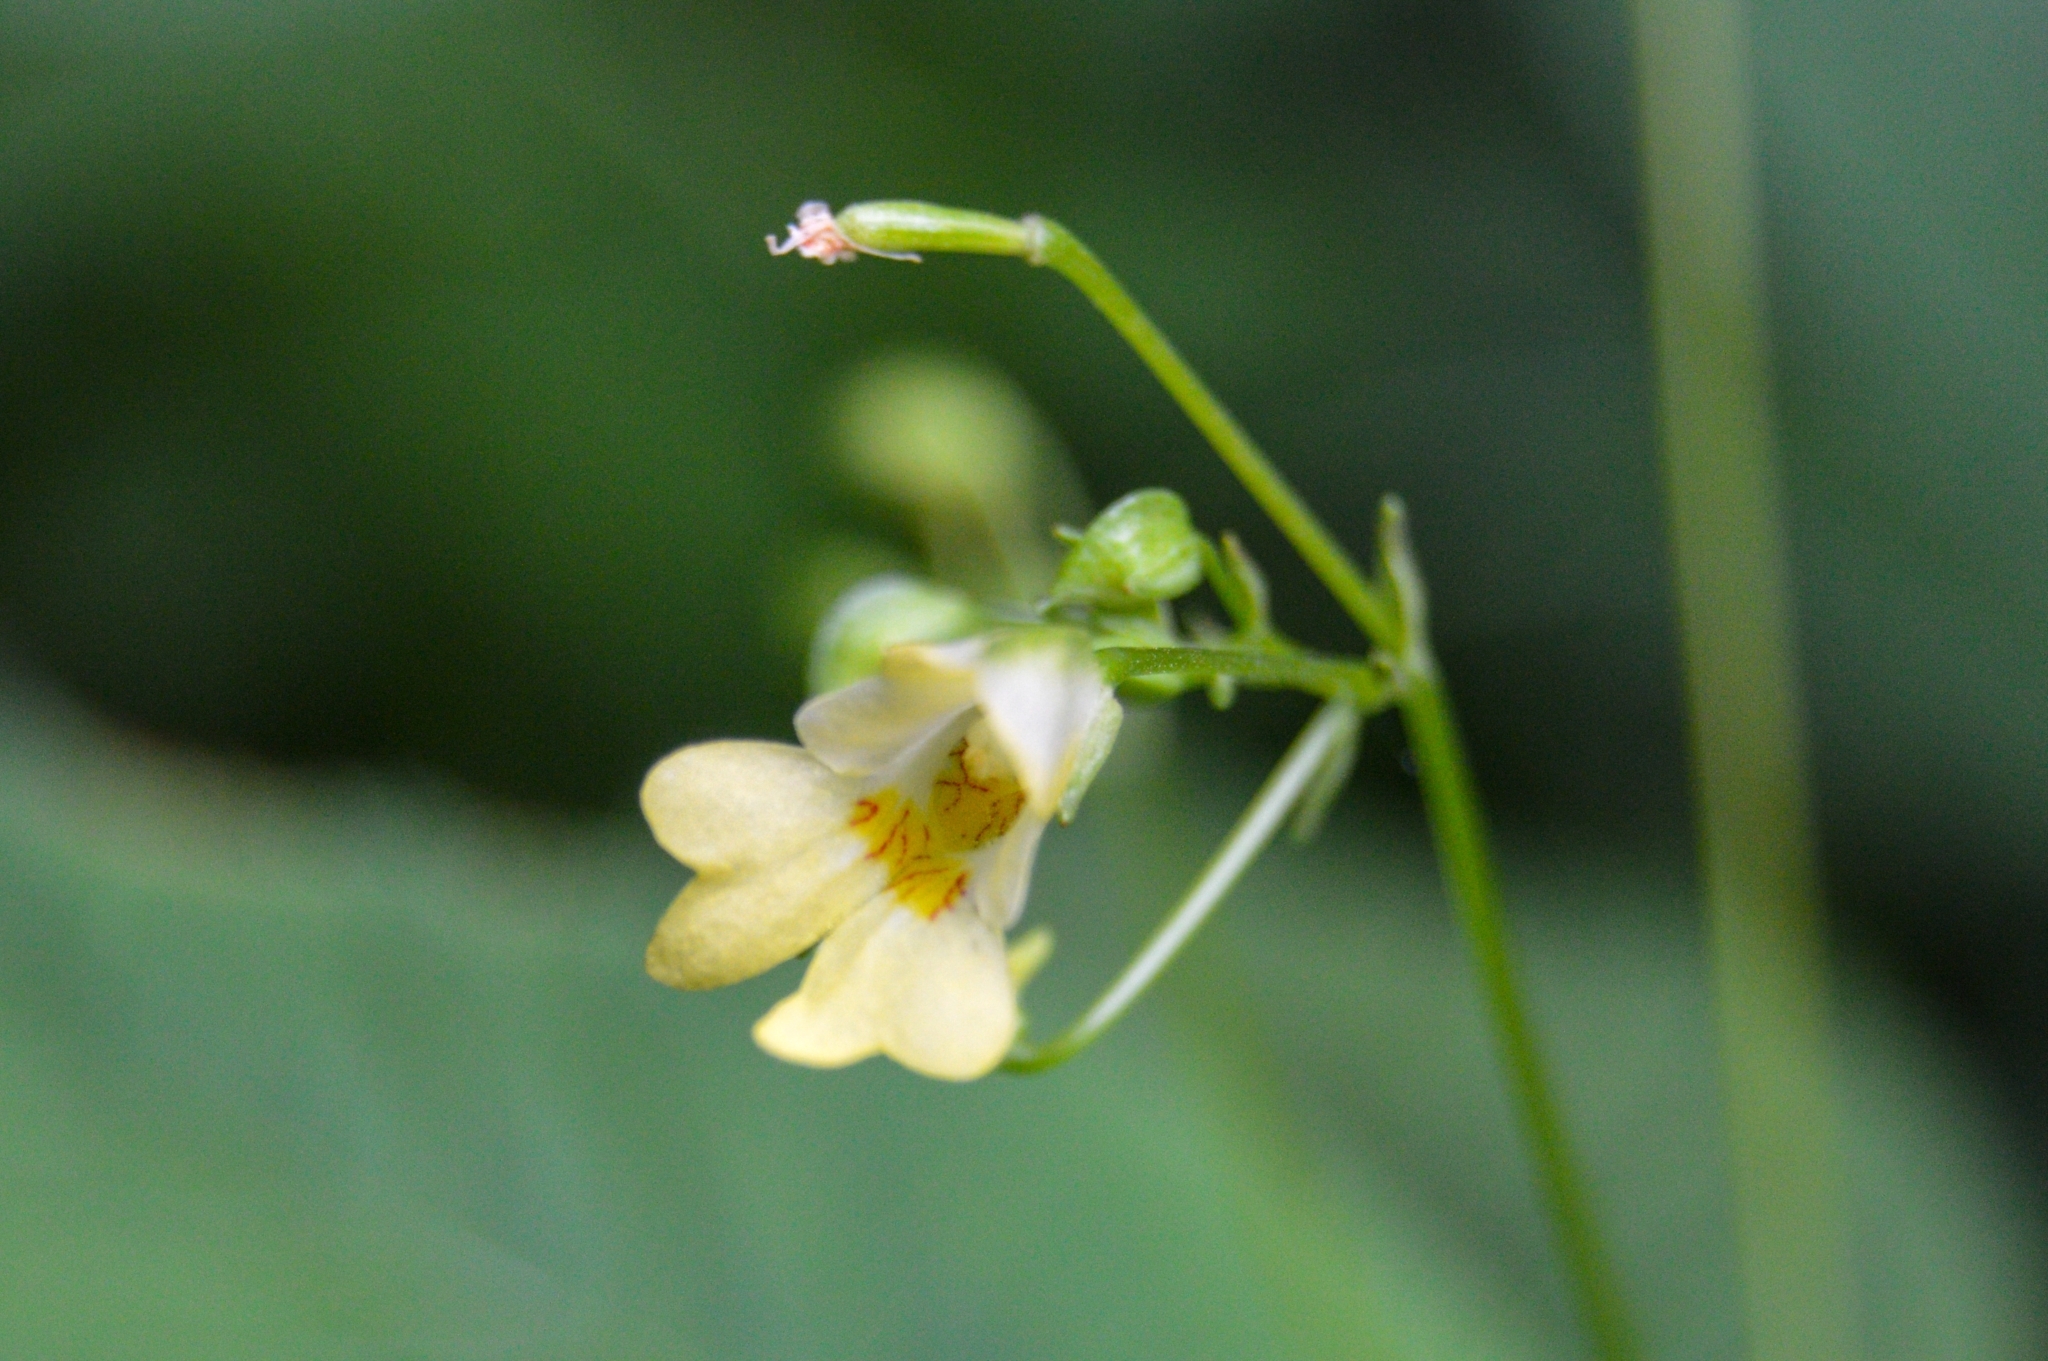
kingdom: Plantae
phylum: Tracheophyta
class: Magnoliopsida
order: Ericales
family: Balsaminaceae
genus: Impatiens
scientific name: Impatiens parviflora
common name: Small balsam
